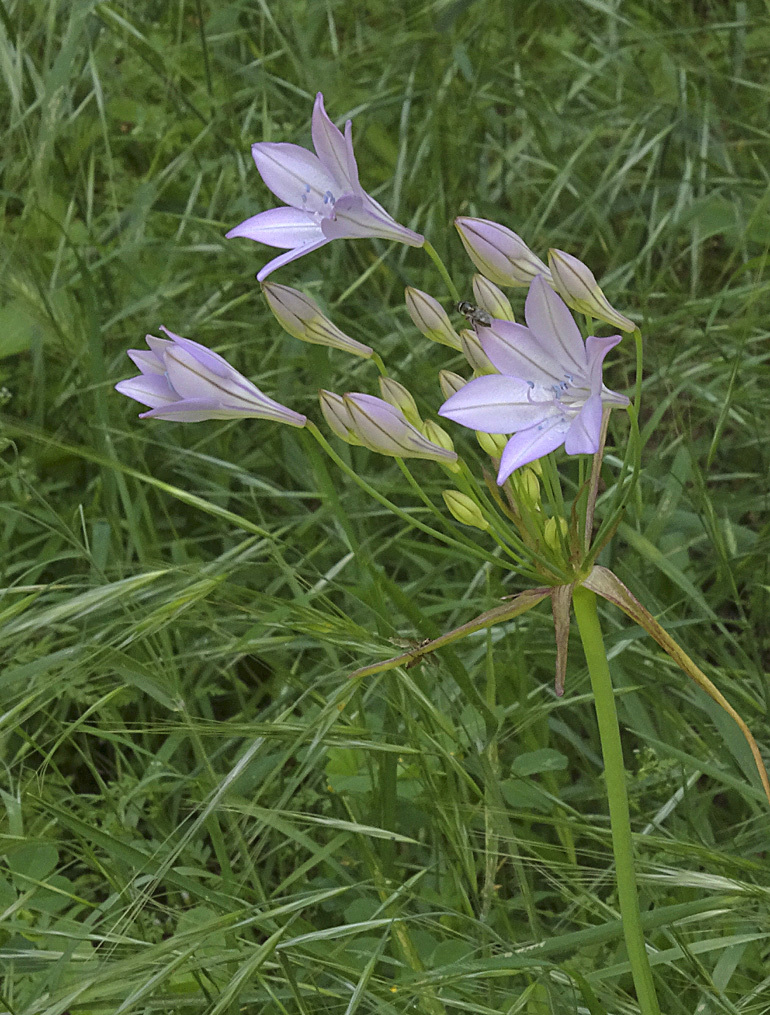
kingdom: Plantae
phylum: Tracheophyta
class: Liliopsida
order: Asparagales
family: Asparagaceae
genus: Triteleia
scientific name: Triteleia laxa
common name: Triplet-lily
